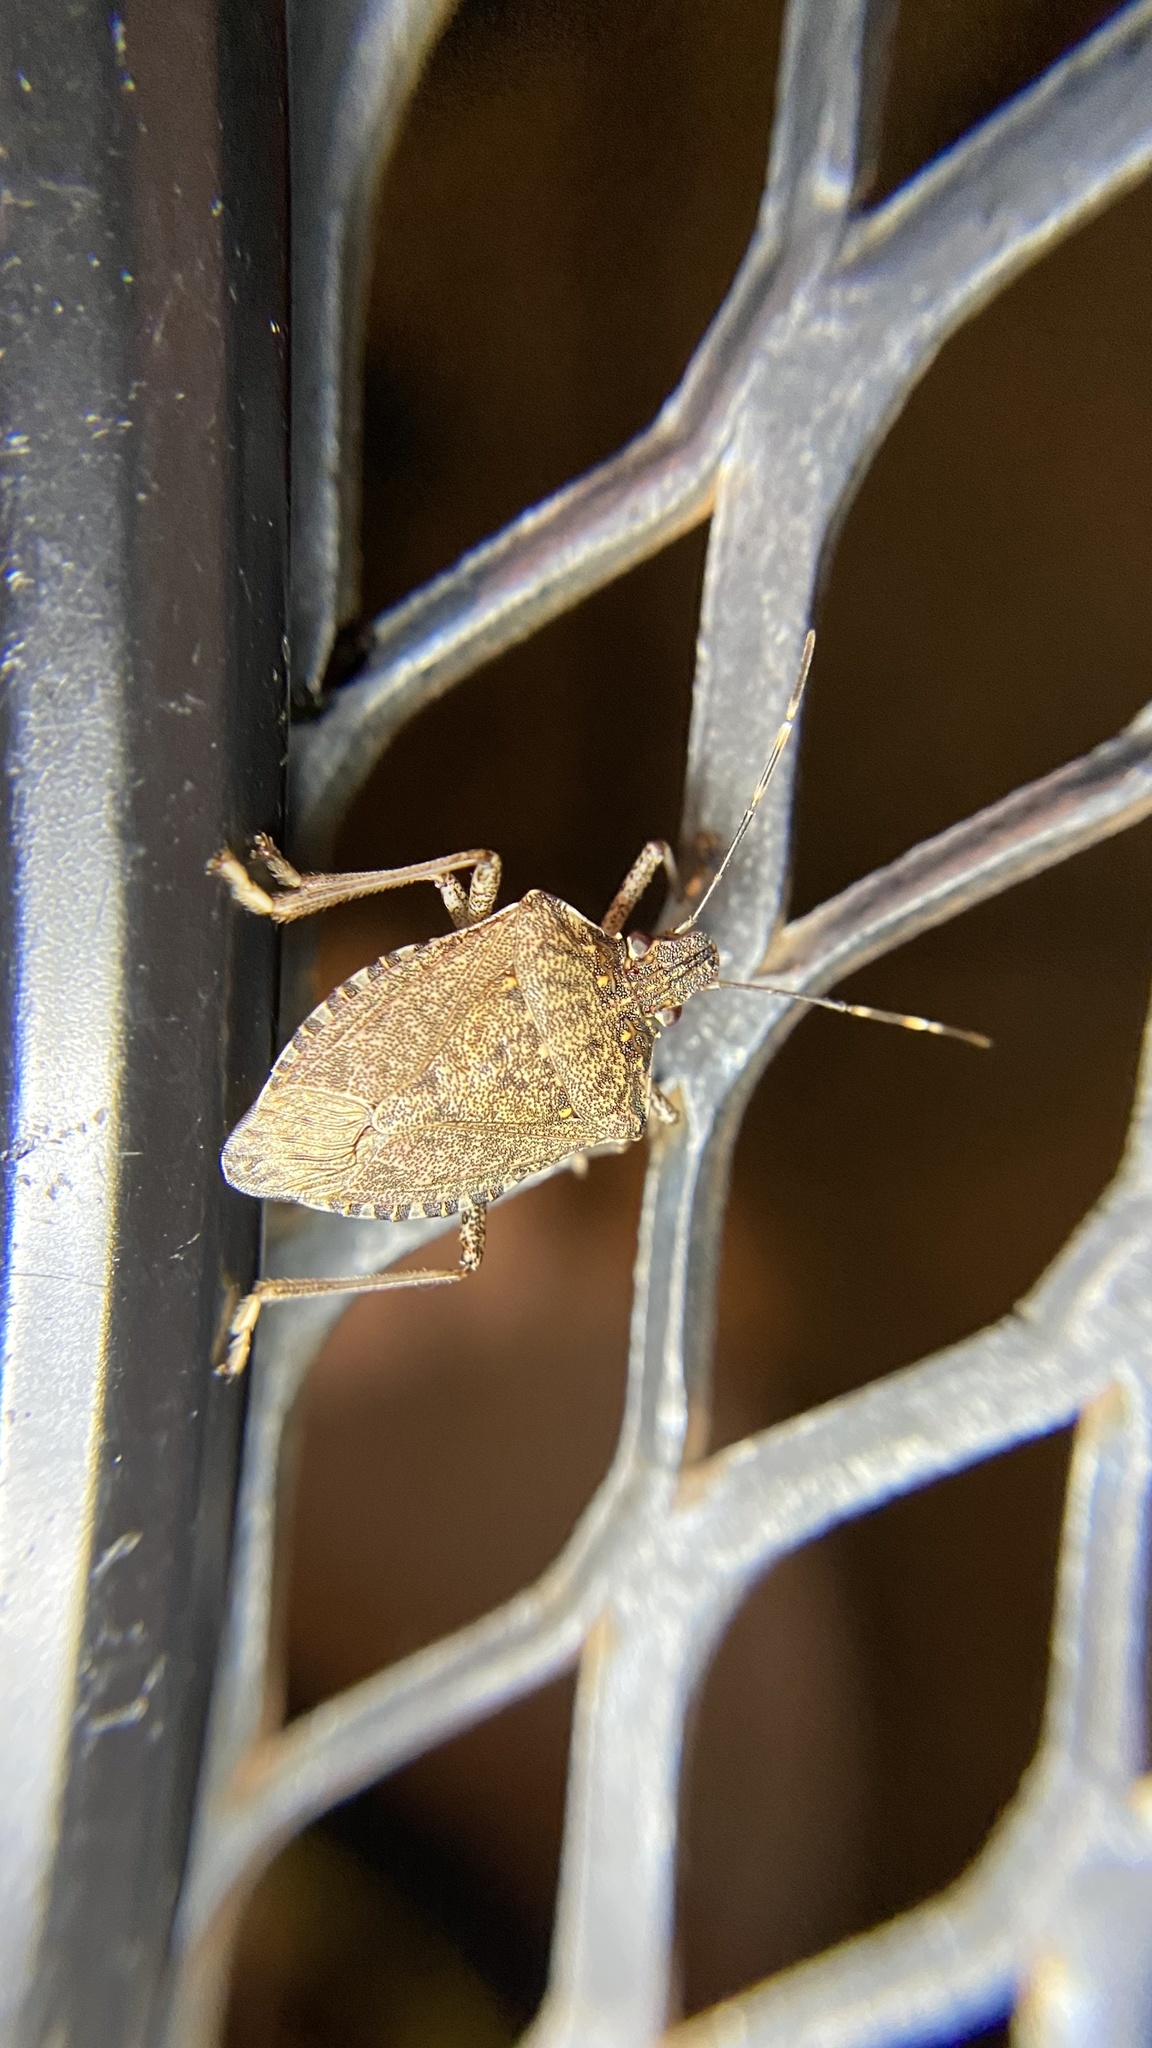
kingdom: Animalia
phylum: Arthropoda
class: Insecta
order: Hemiptera
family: Pentatomidae
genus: Halyomorpha
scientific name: Halyomorpha halys
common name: Brown marmorated stink bug
